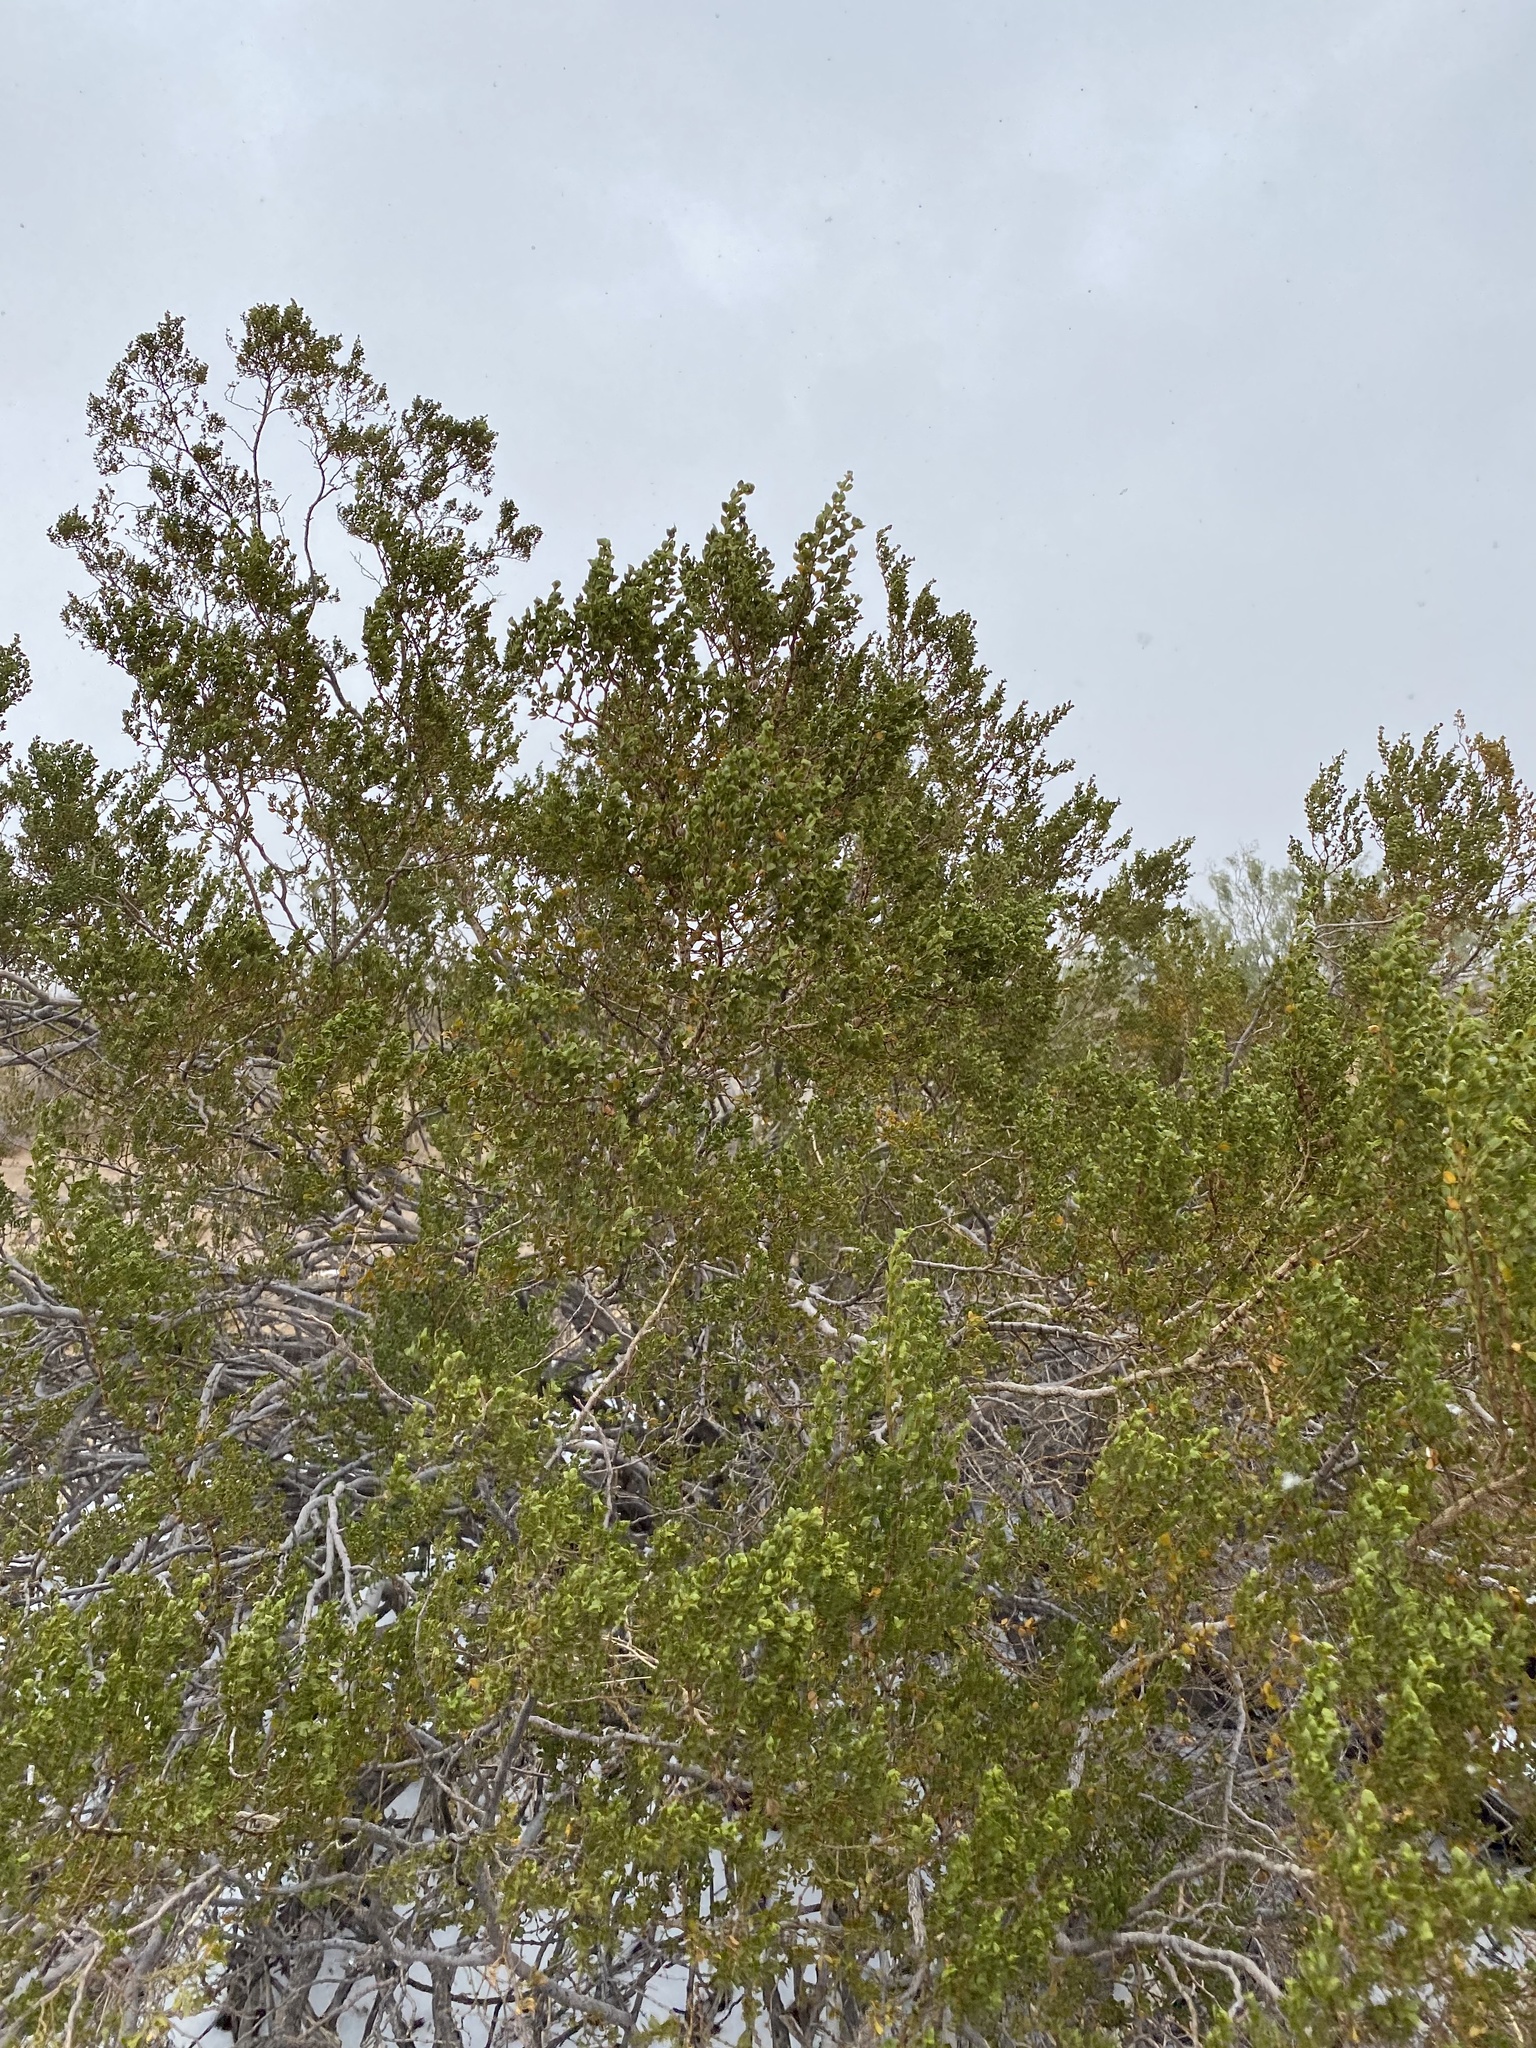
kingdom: Plantae
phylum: Tracheophyta
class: Magnoliopsida
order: Zygophyllales
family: Zygophyllaceae
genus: Larrea
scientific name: Larrea tridentata
